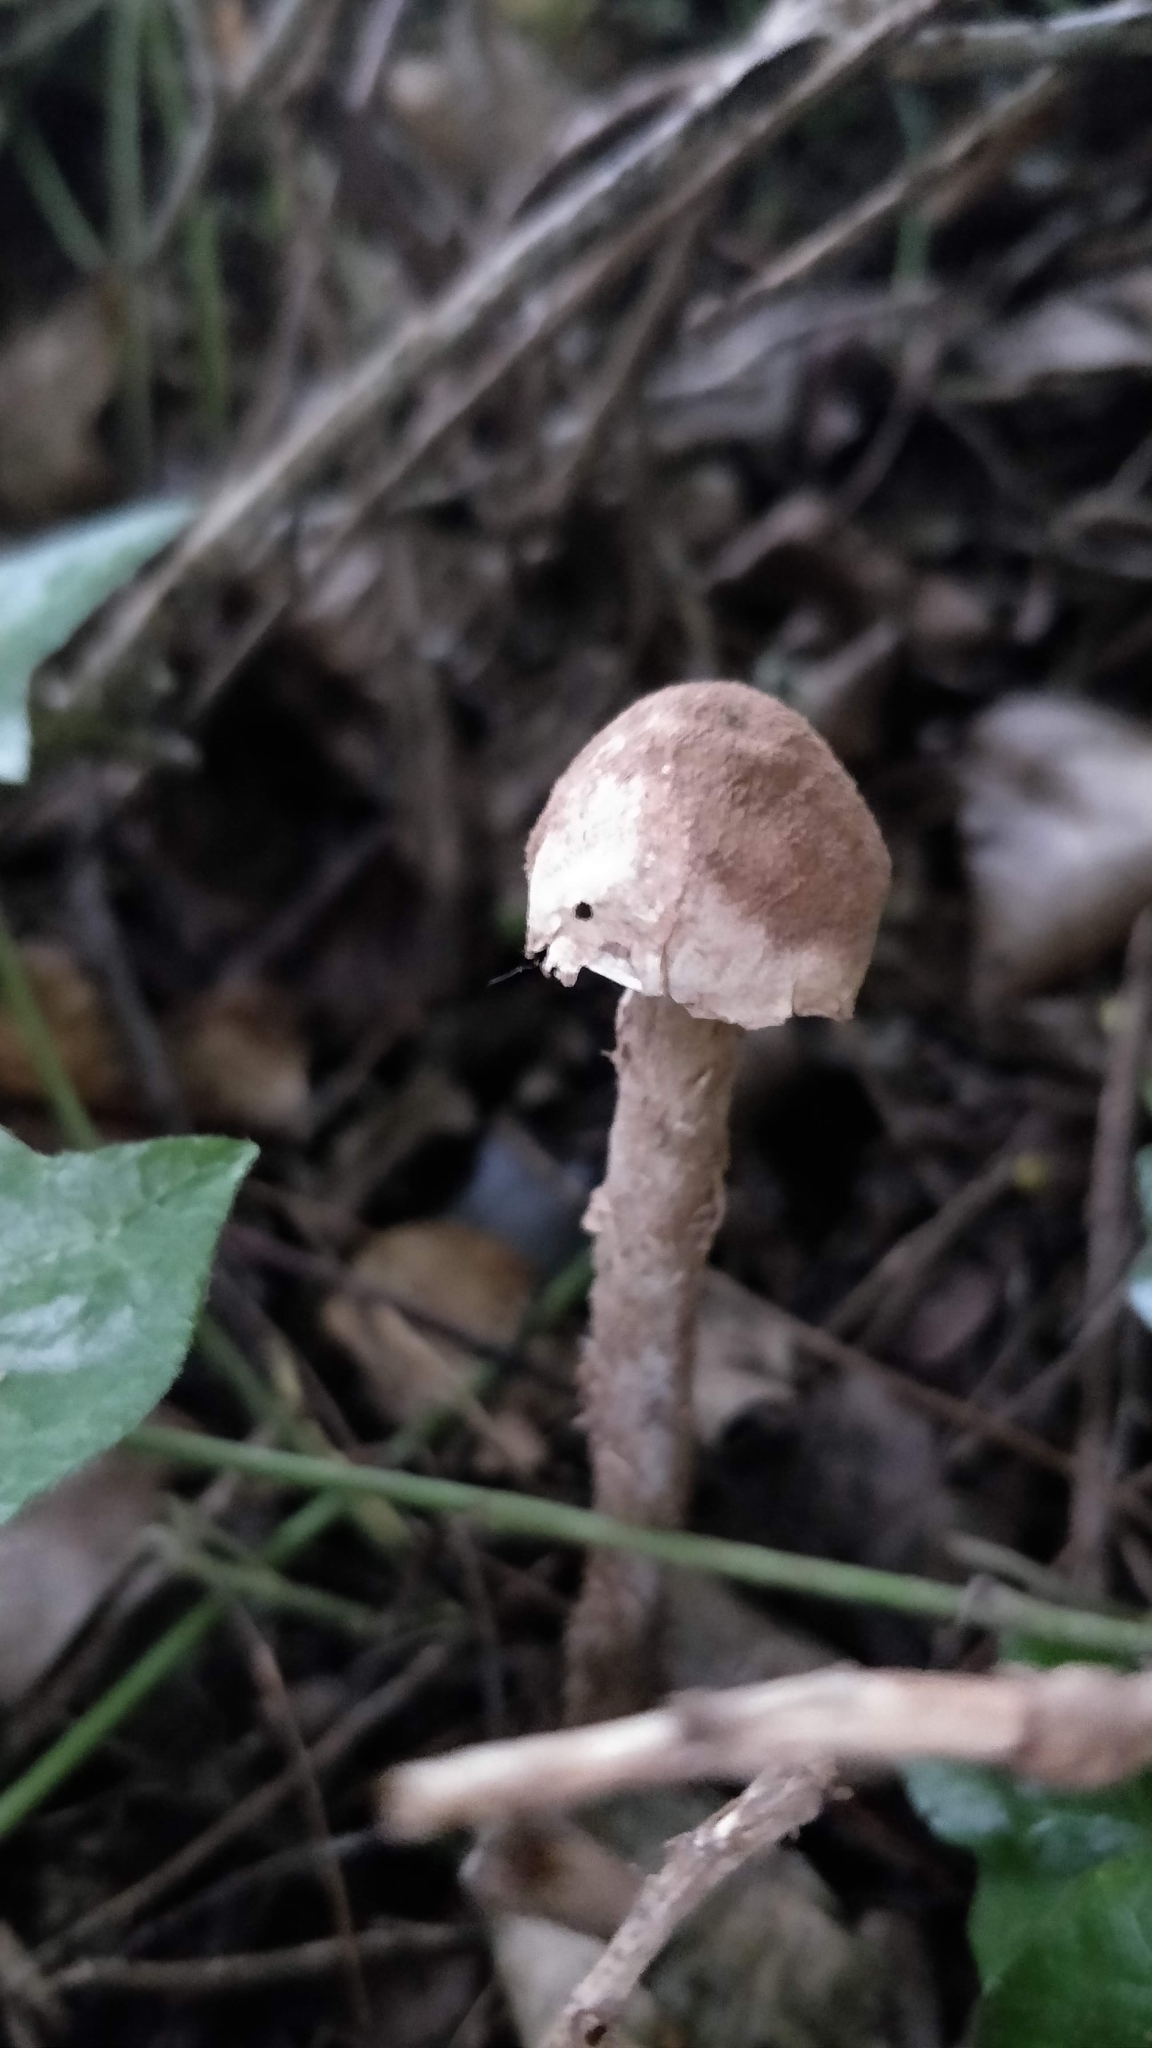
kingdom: Fungi
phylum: Basidiomycota
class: Agaricomycetes
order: Agaricales
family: Agaricaceae
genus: Battarrea
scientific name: Battarrea phalloides
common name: Sandy stiltball
